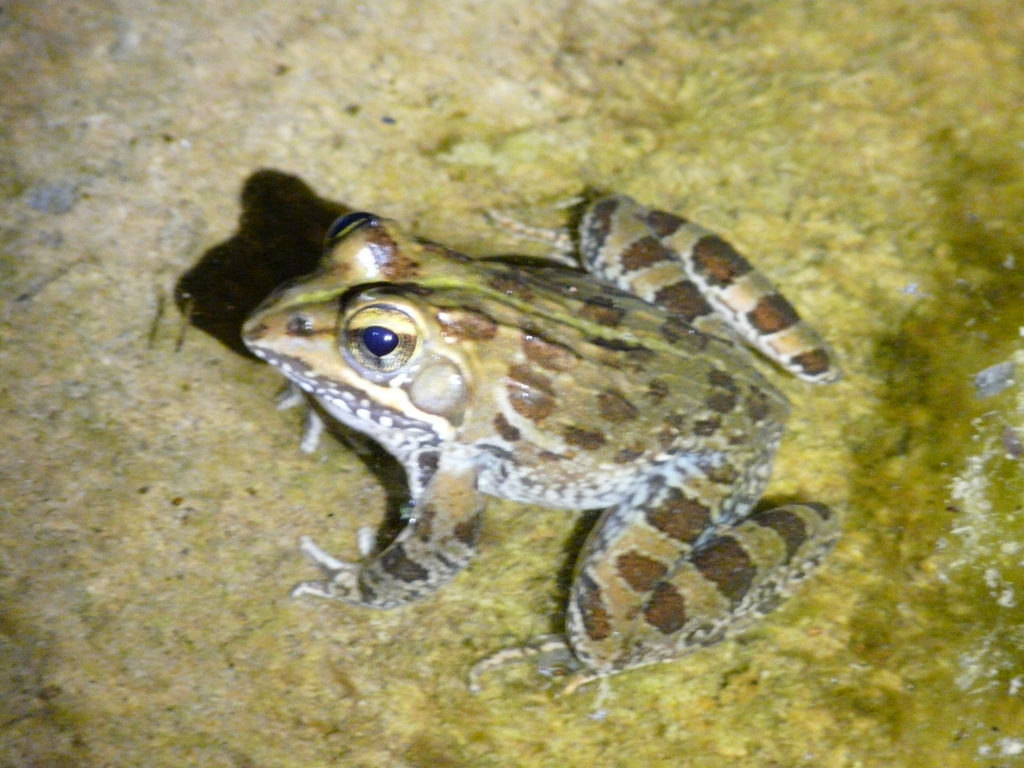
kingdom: Animalia
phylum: Chordata
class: Amphibia
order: Anura
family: Pyxicephalidae
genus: Amietia
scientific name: Amietia delalandii
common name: Delalande's river frog
